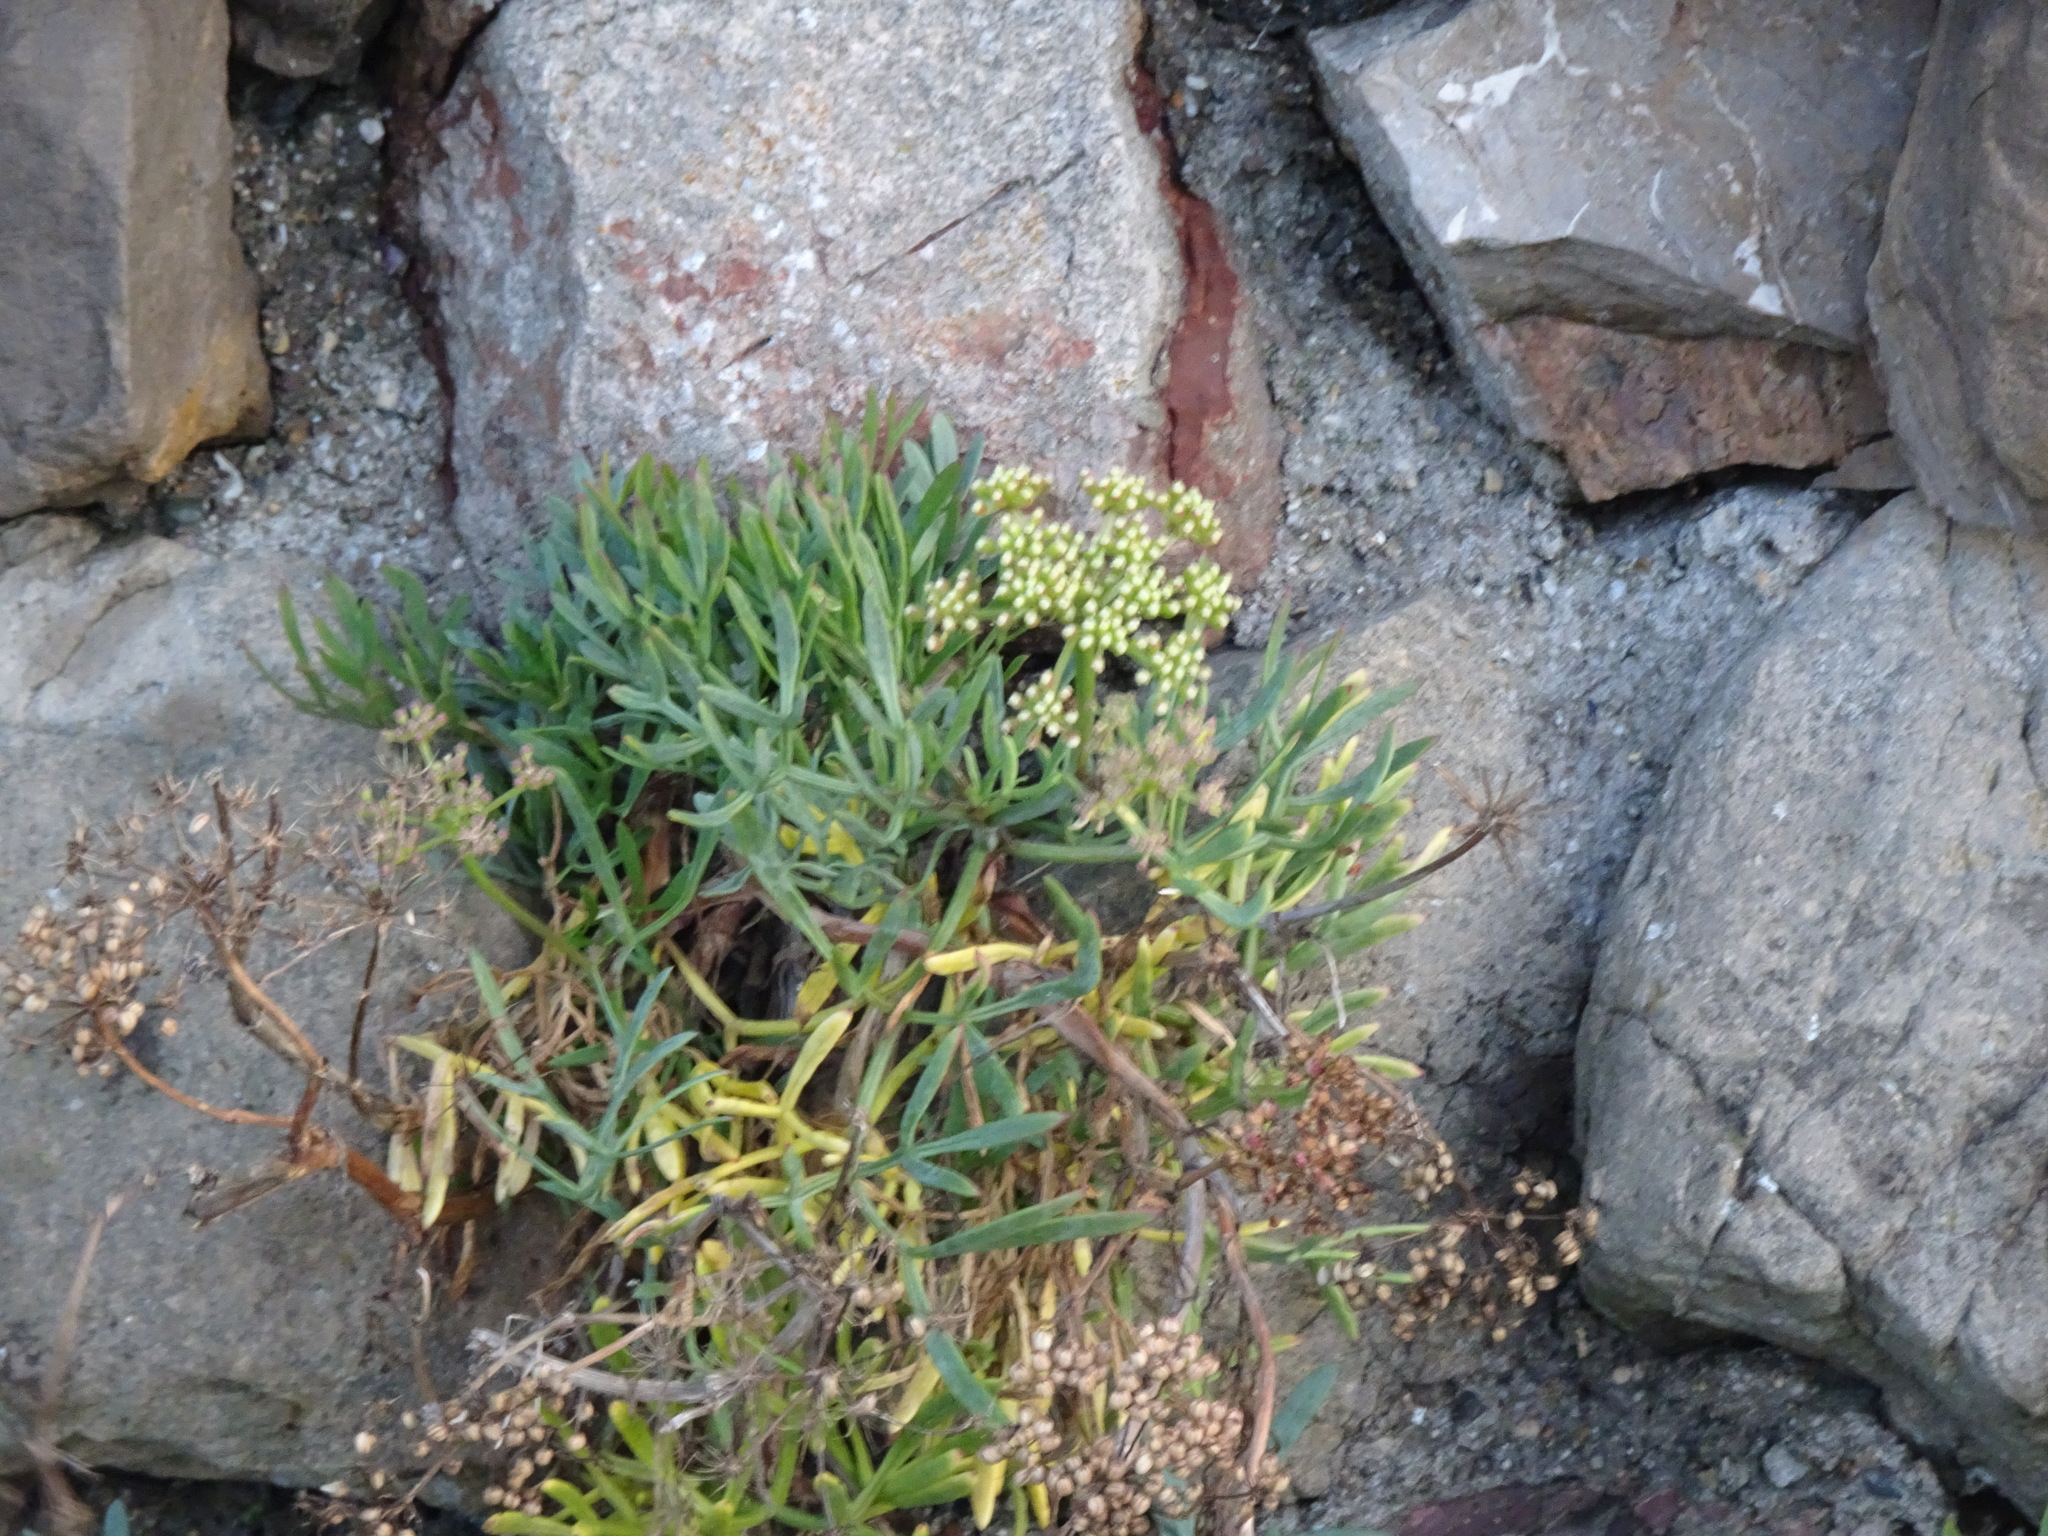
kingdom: Plantae
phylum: Tracheophyta
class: Magnoliopsida
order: Apiales
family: Apiaceae
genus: Crithmum
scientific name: Crithmum maritimum
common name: Rock samphire
